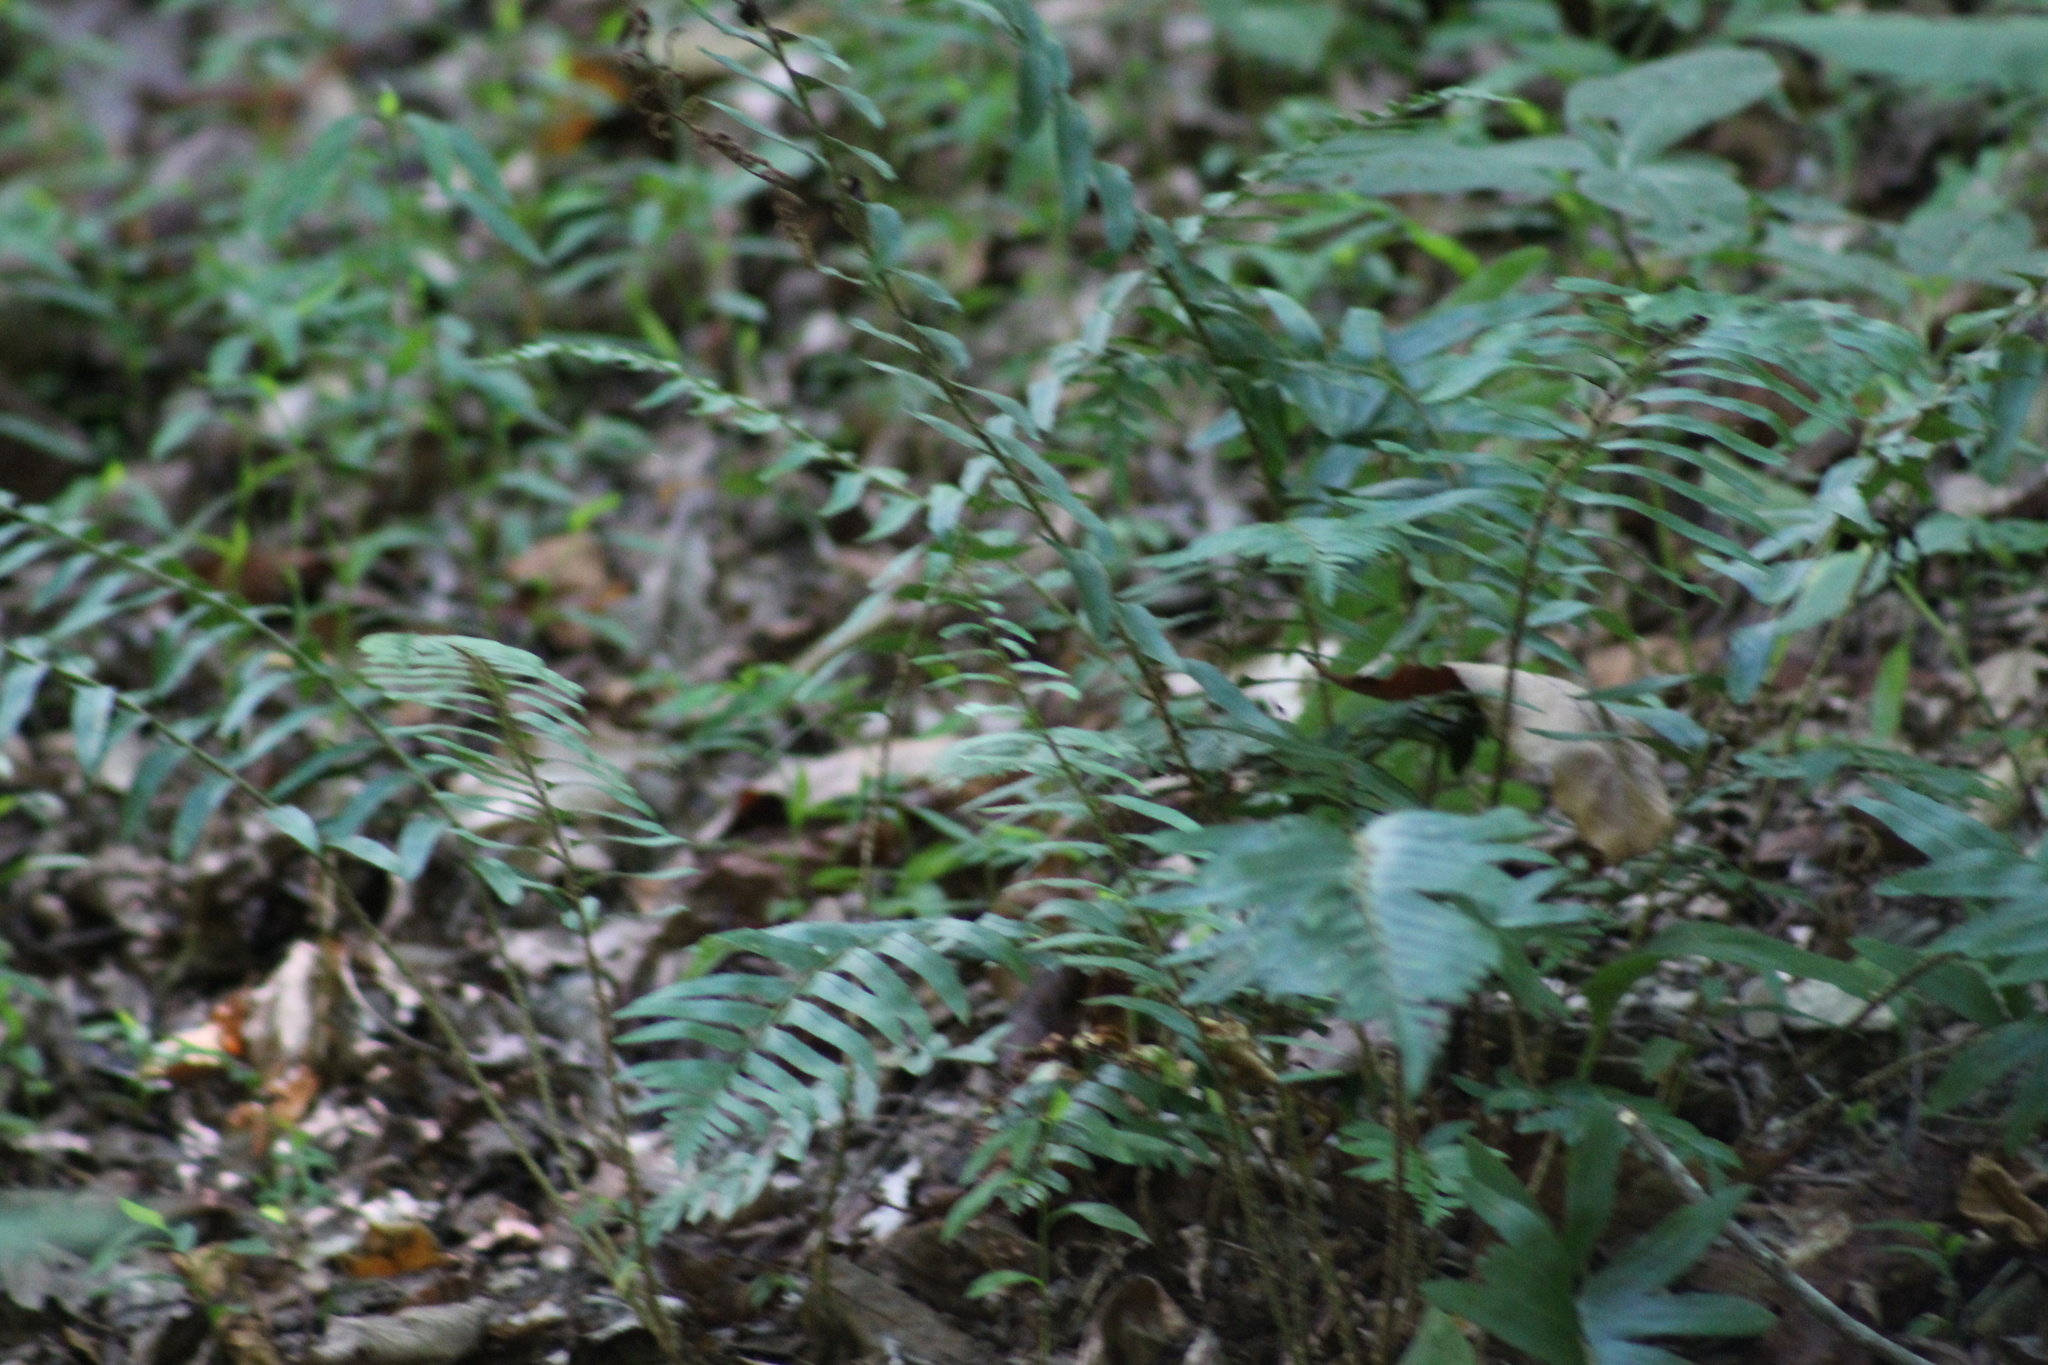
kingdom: Plantae
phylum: Tracheophyta
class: Polypodiopsida
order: Polypodiales
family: Dryopteridaceae
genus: Polystichum
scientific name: Polystichum acrostichoides
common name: Christmas fern
